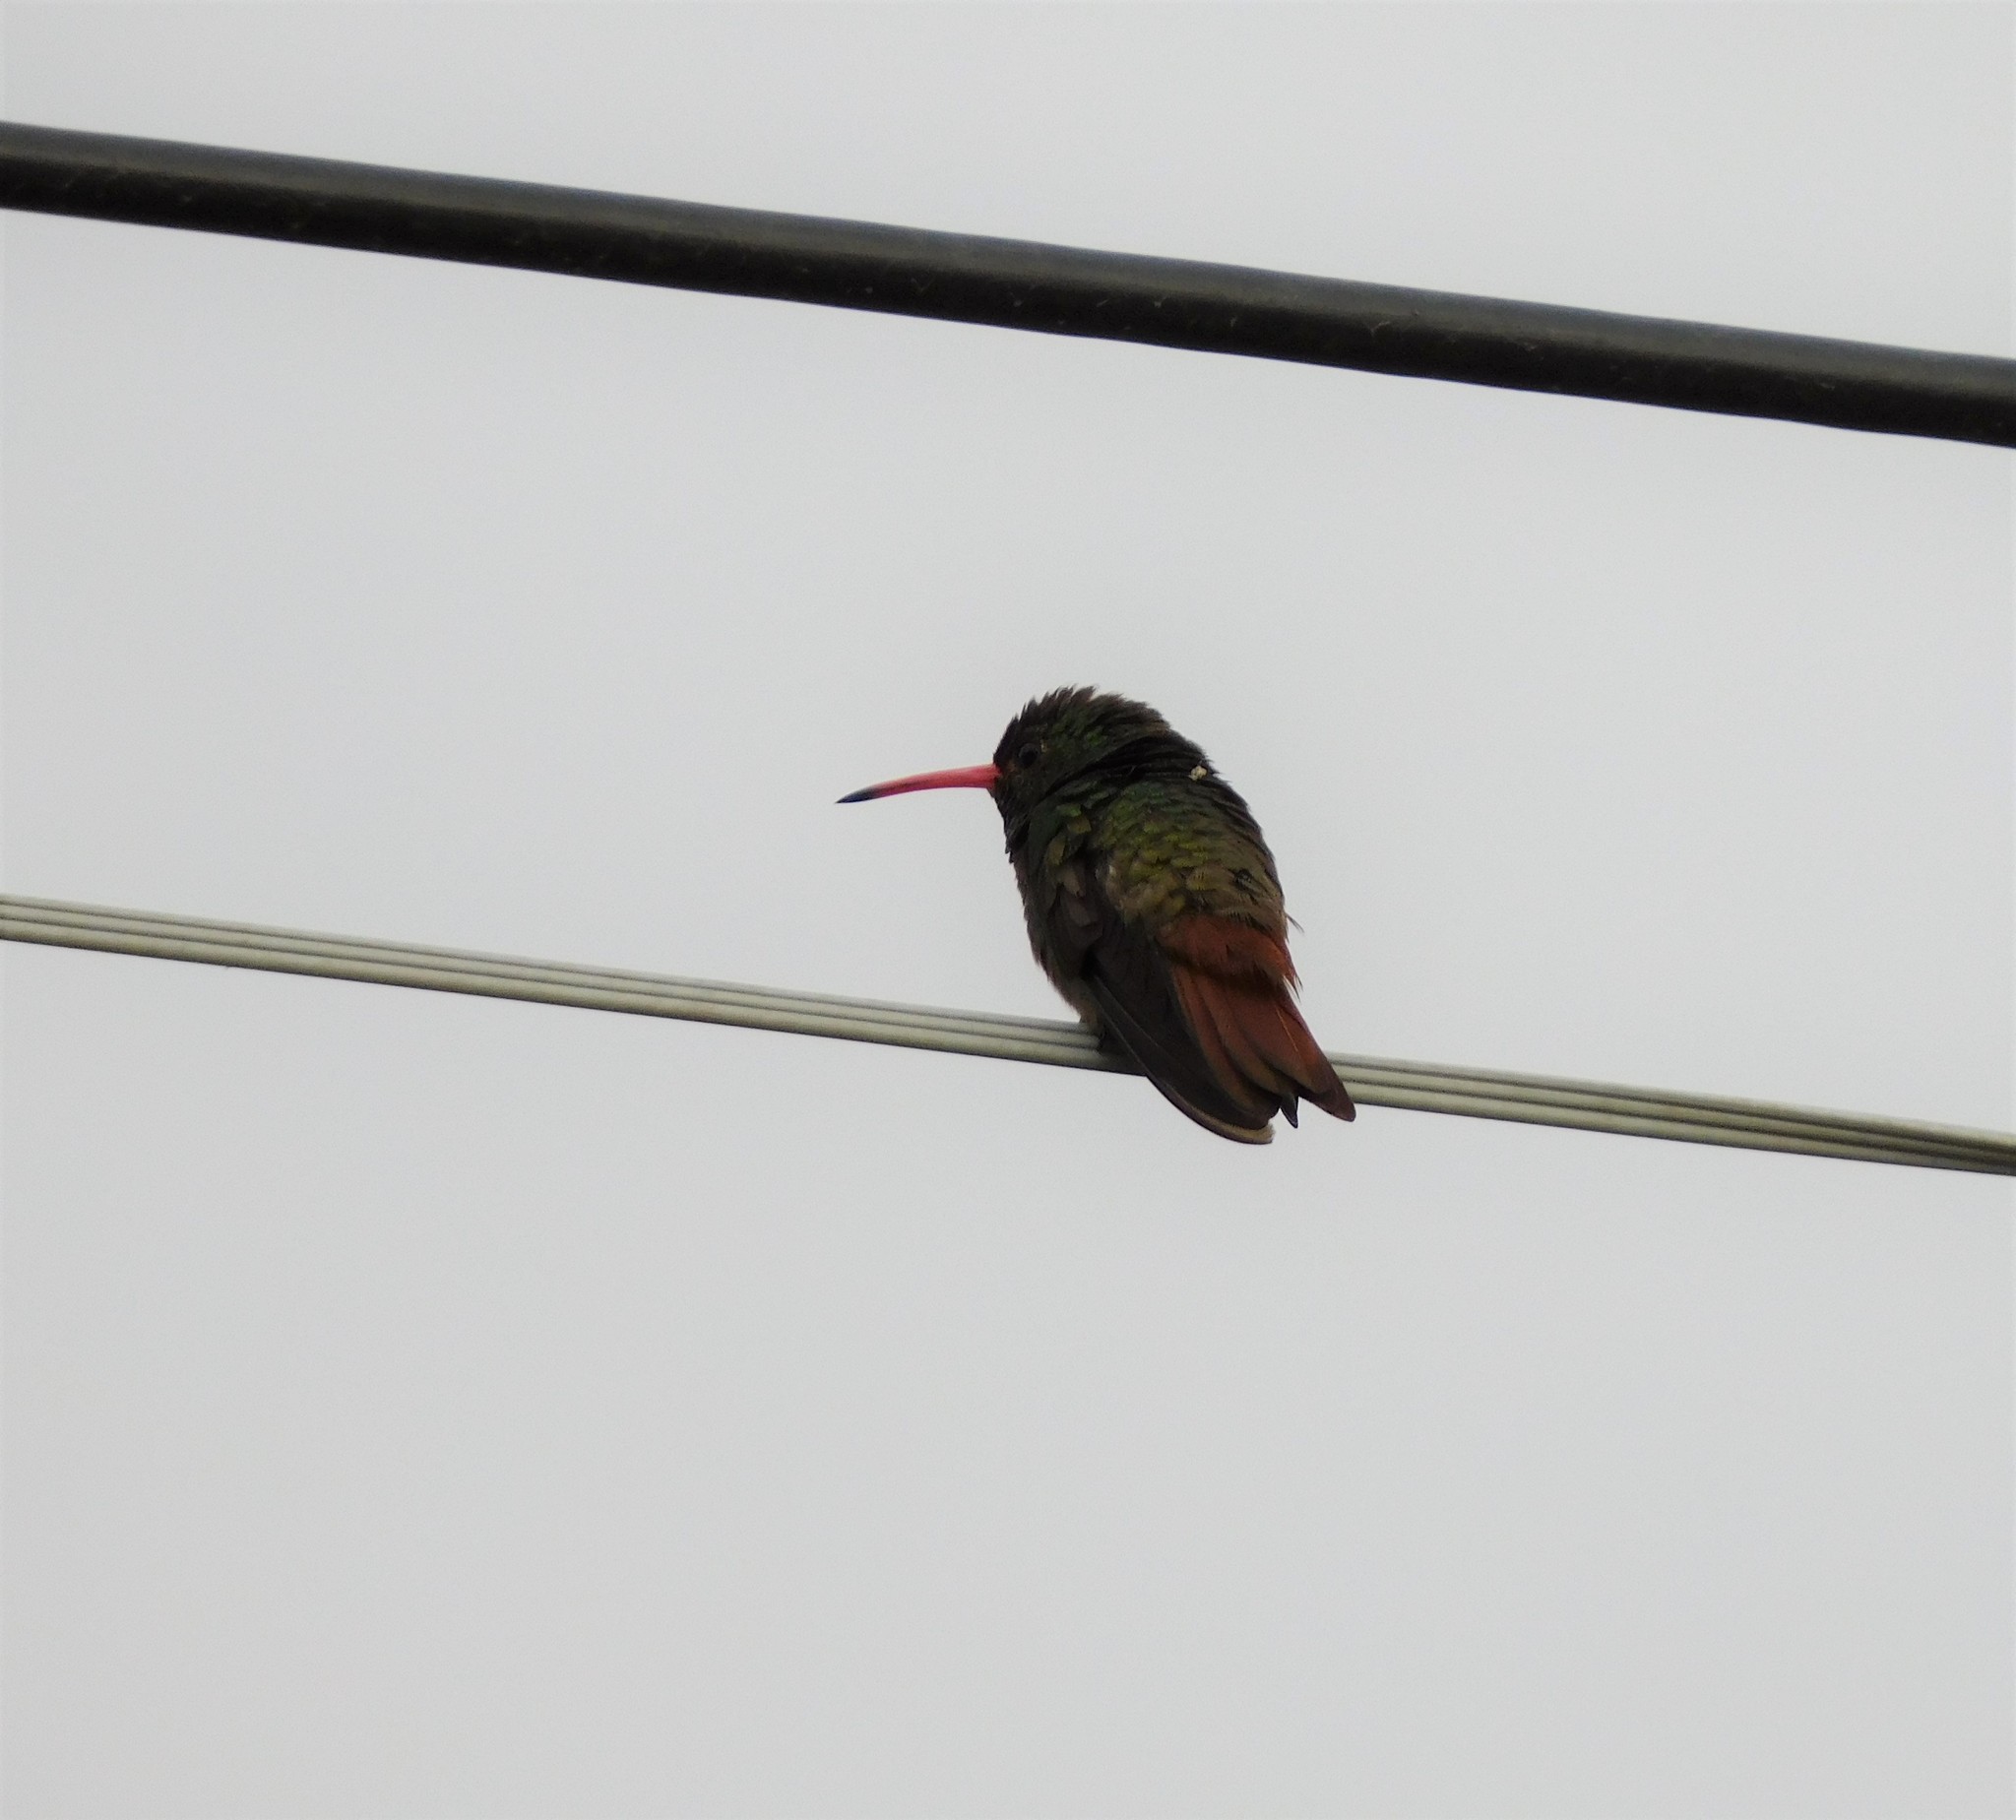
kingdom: Animalia
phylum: Chordata
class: Aves
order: Apodiformes
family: Trochilidae
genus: Amazilia
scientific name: Amazilia tzacatl
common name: Rufous-tailed hummingbird
